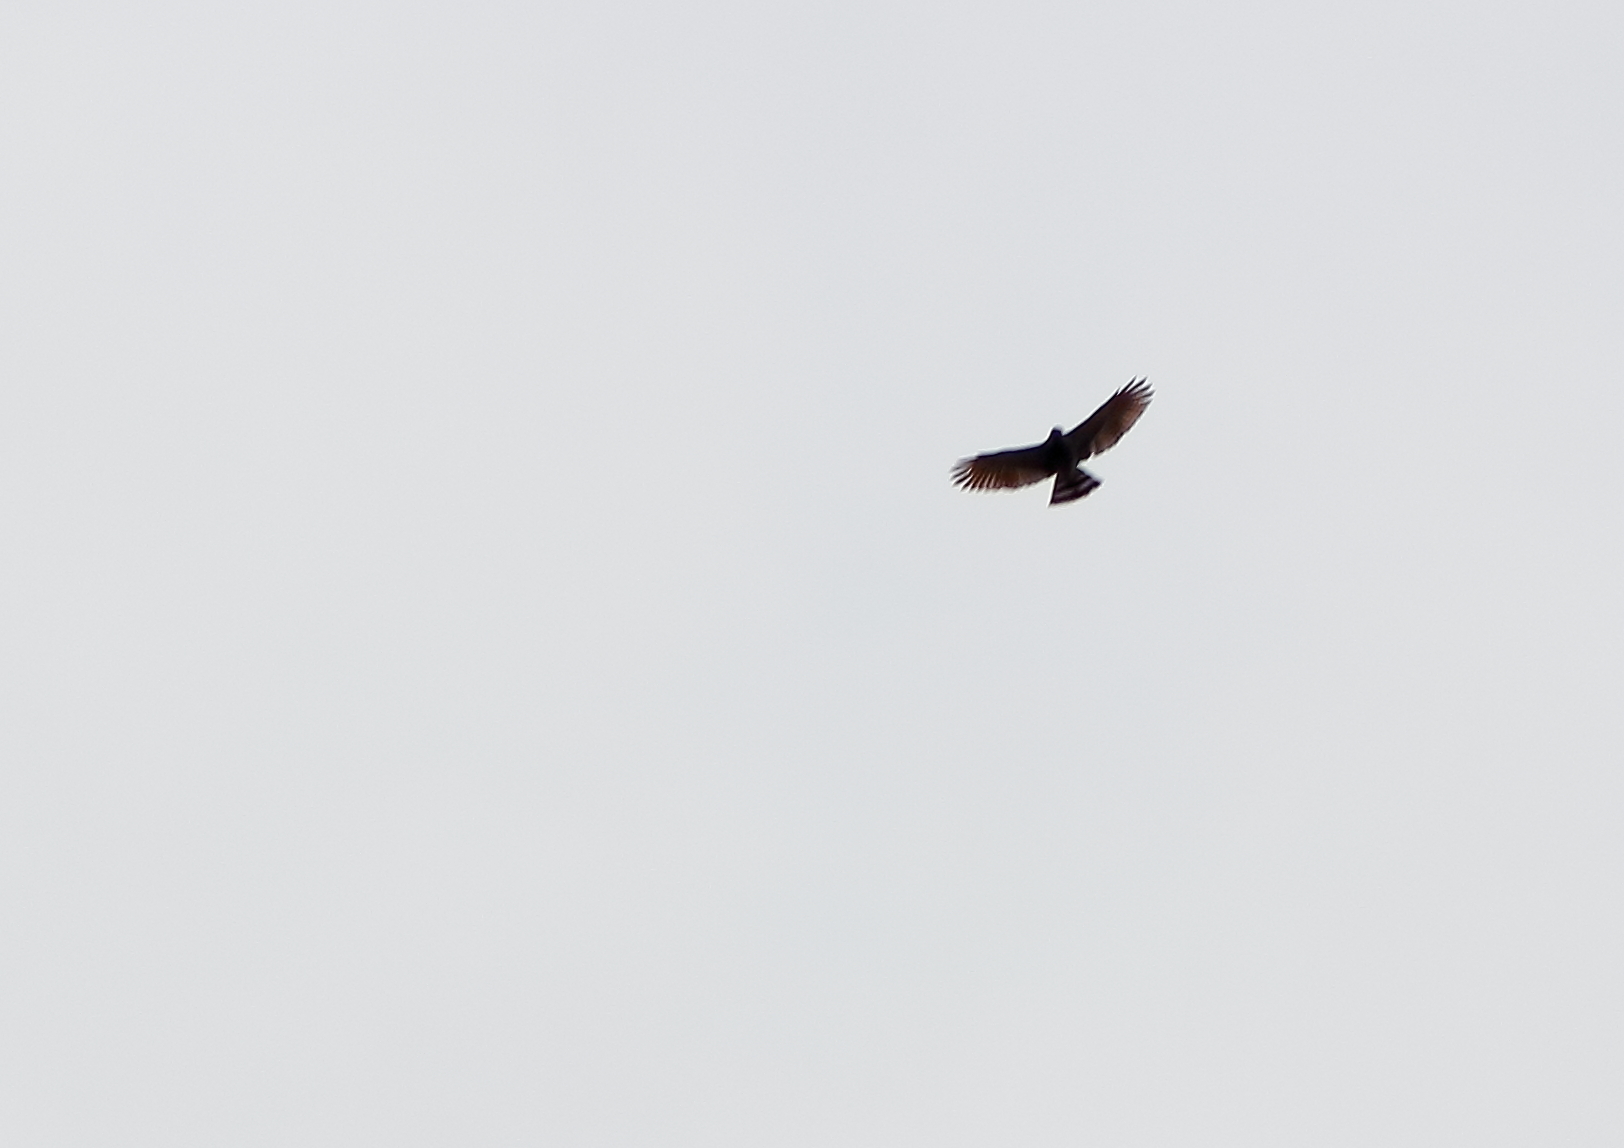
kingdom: Animalia
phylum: Chordata
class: Aves
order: Accipitriformes
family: Accipitridae
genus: Rupornis
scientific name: Rupornis magnirostris
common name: Roadside hawk
